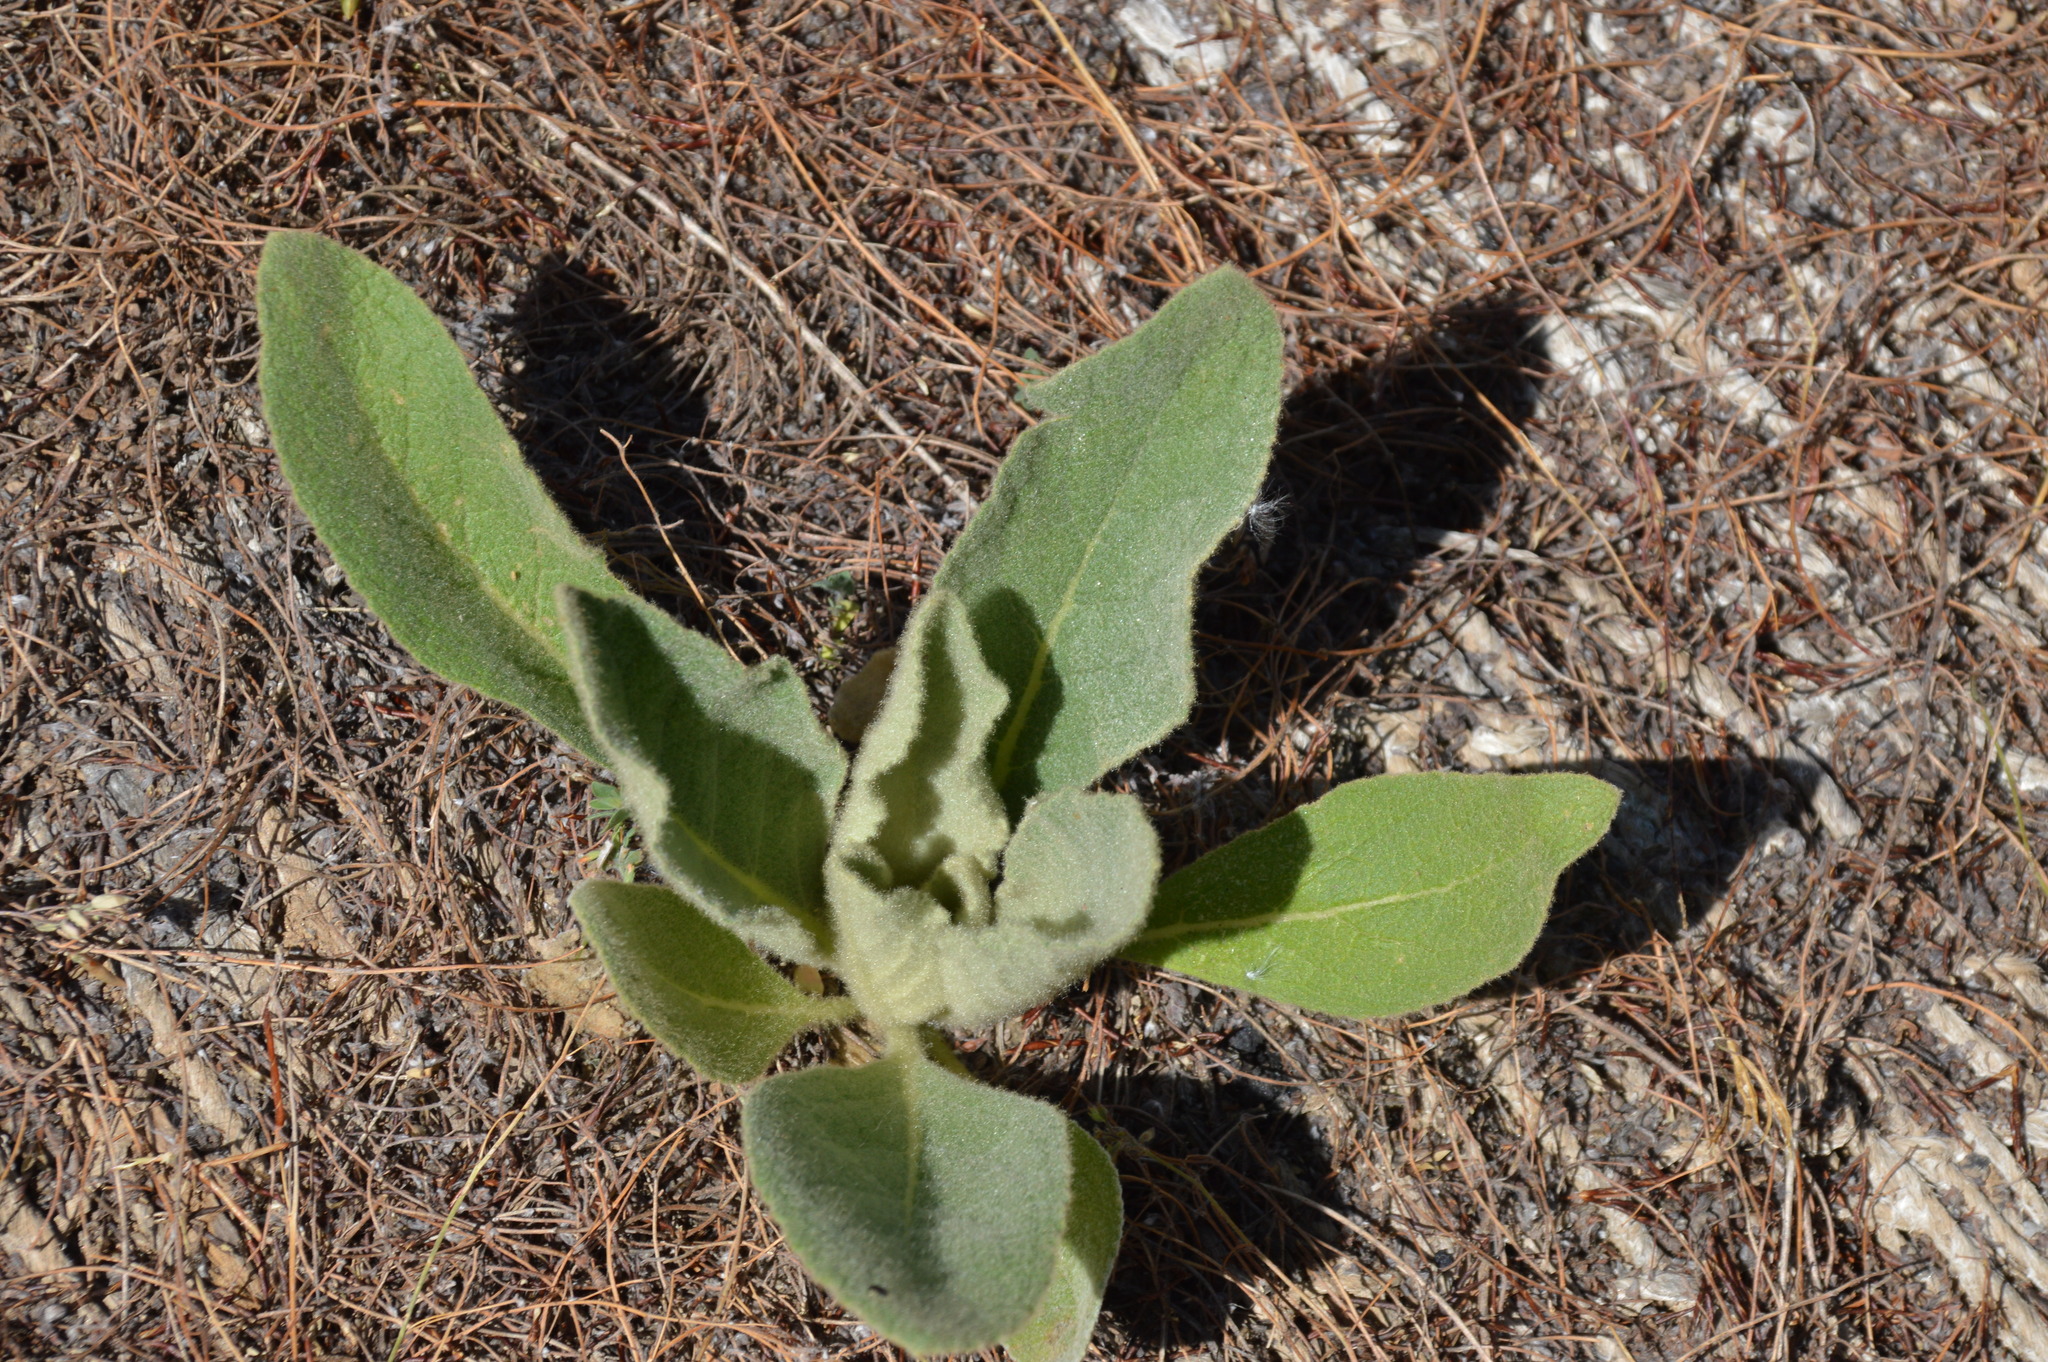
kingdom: Plantae
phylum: Tracheophyta
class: Magnoliopsida
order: Lamiales
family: Scrophulariaceae
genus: Verbascum
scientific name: Verbascum thapsus
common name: Common mullein
